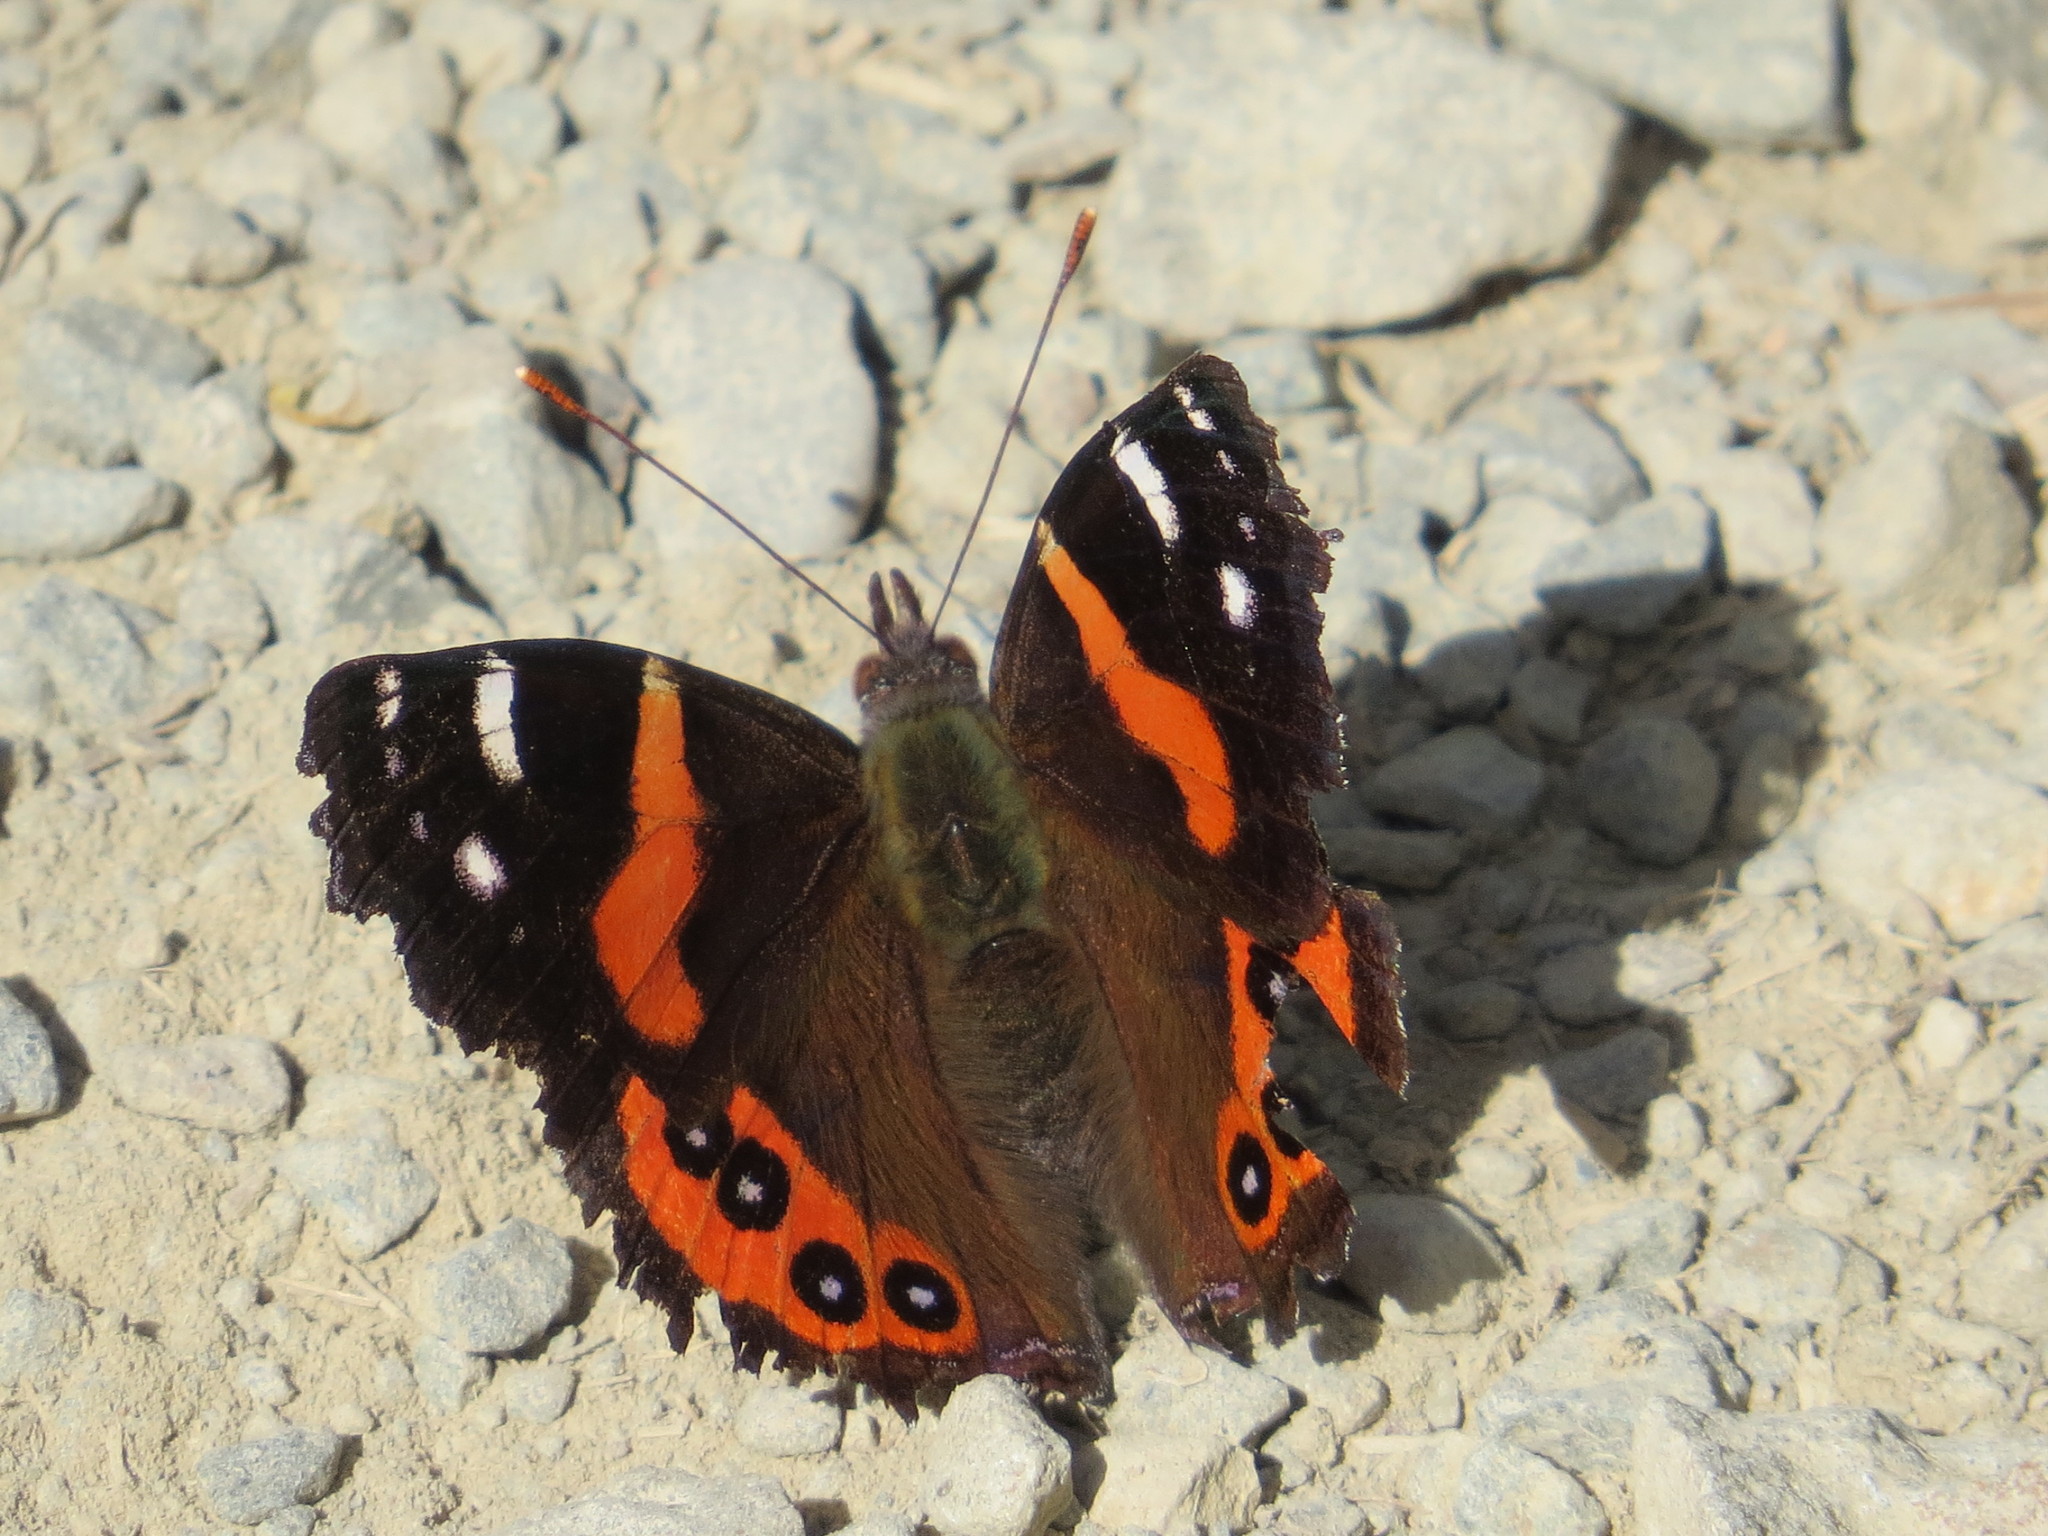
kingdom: Animalia
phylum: Arthropoda
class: Insecta
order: Lepidoptera
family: Nymphalidae
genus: Vanessa
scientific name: Vanessa gonerilla
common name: New zealand red admiral
